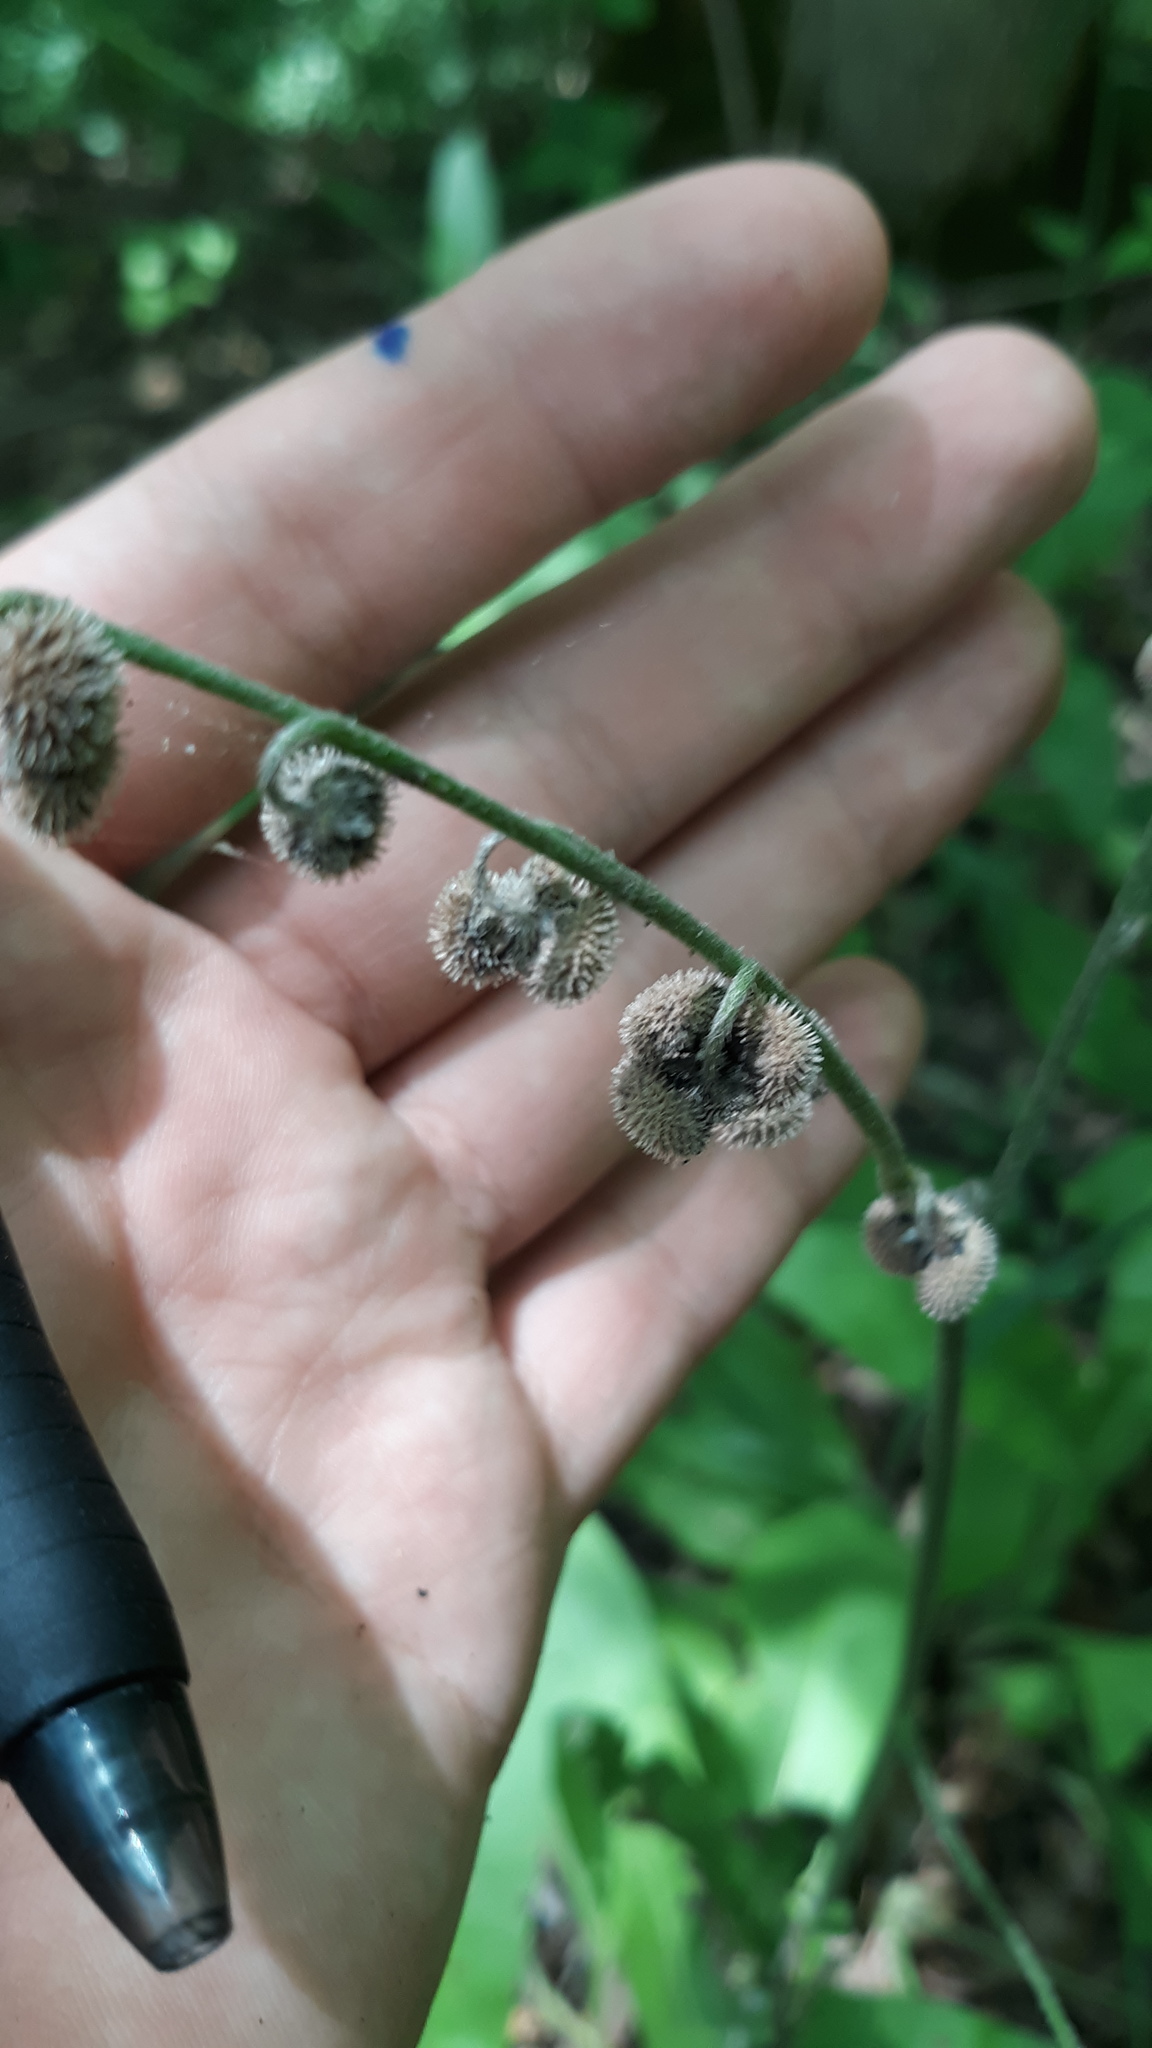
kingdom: Plantae
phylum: Tracheophyta
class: Magnoliopsida
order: Boraginales
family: Boraginaceae
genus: Andersonglossum
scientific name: Andersonglossum virginianum
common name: Wild comfrey
